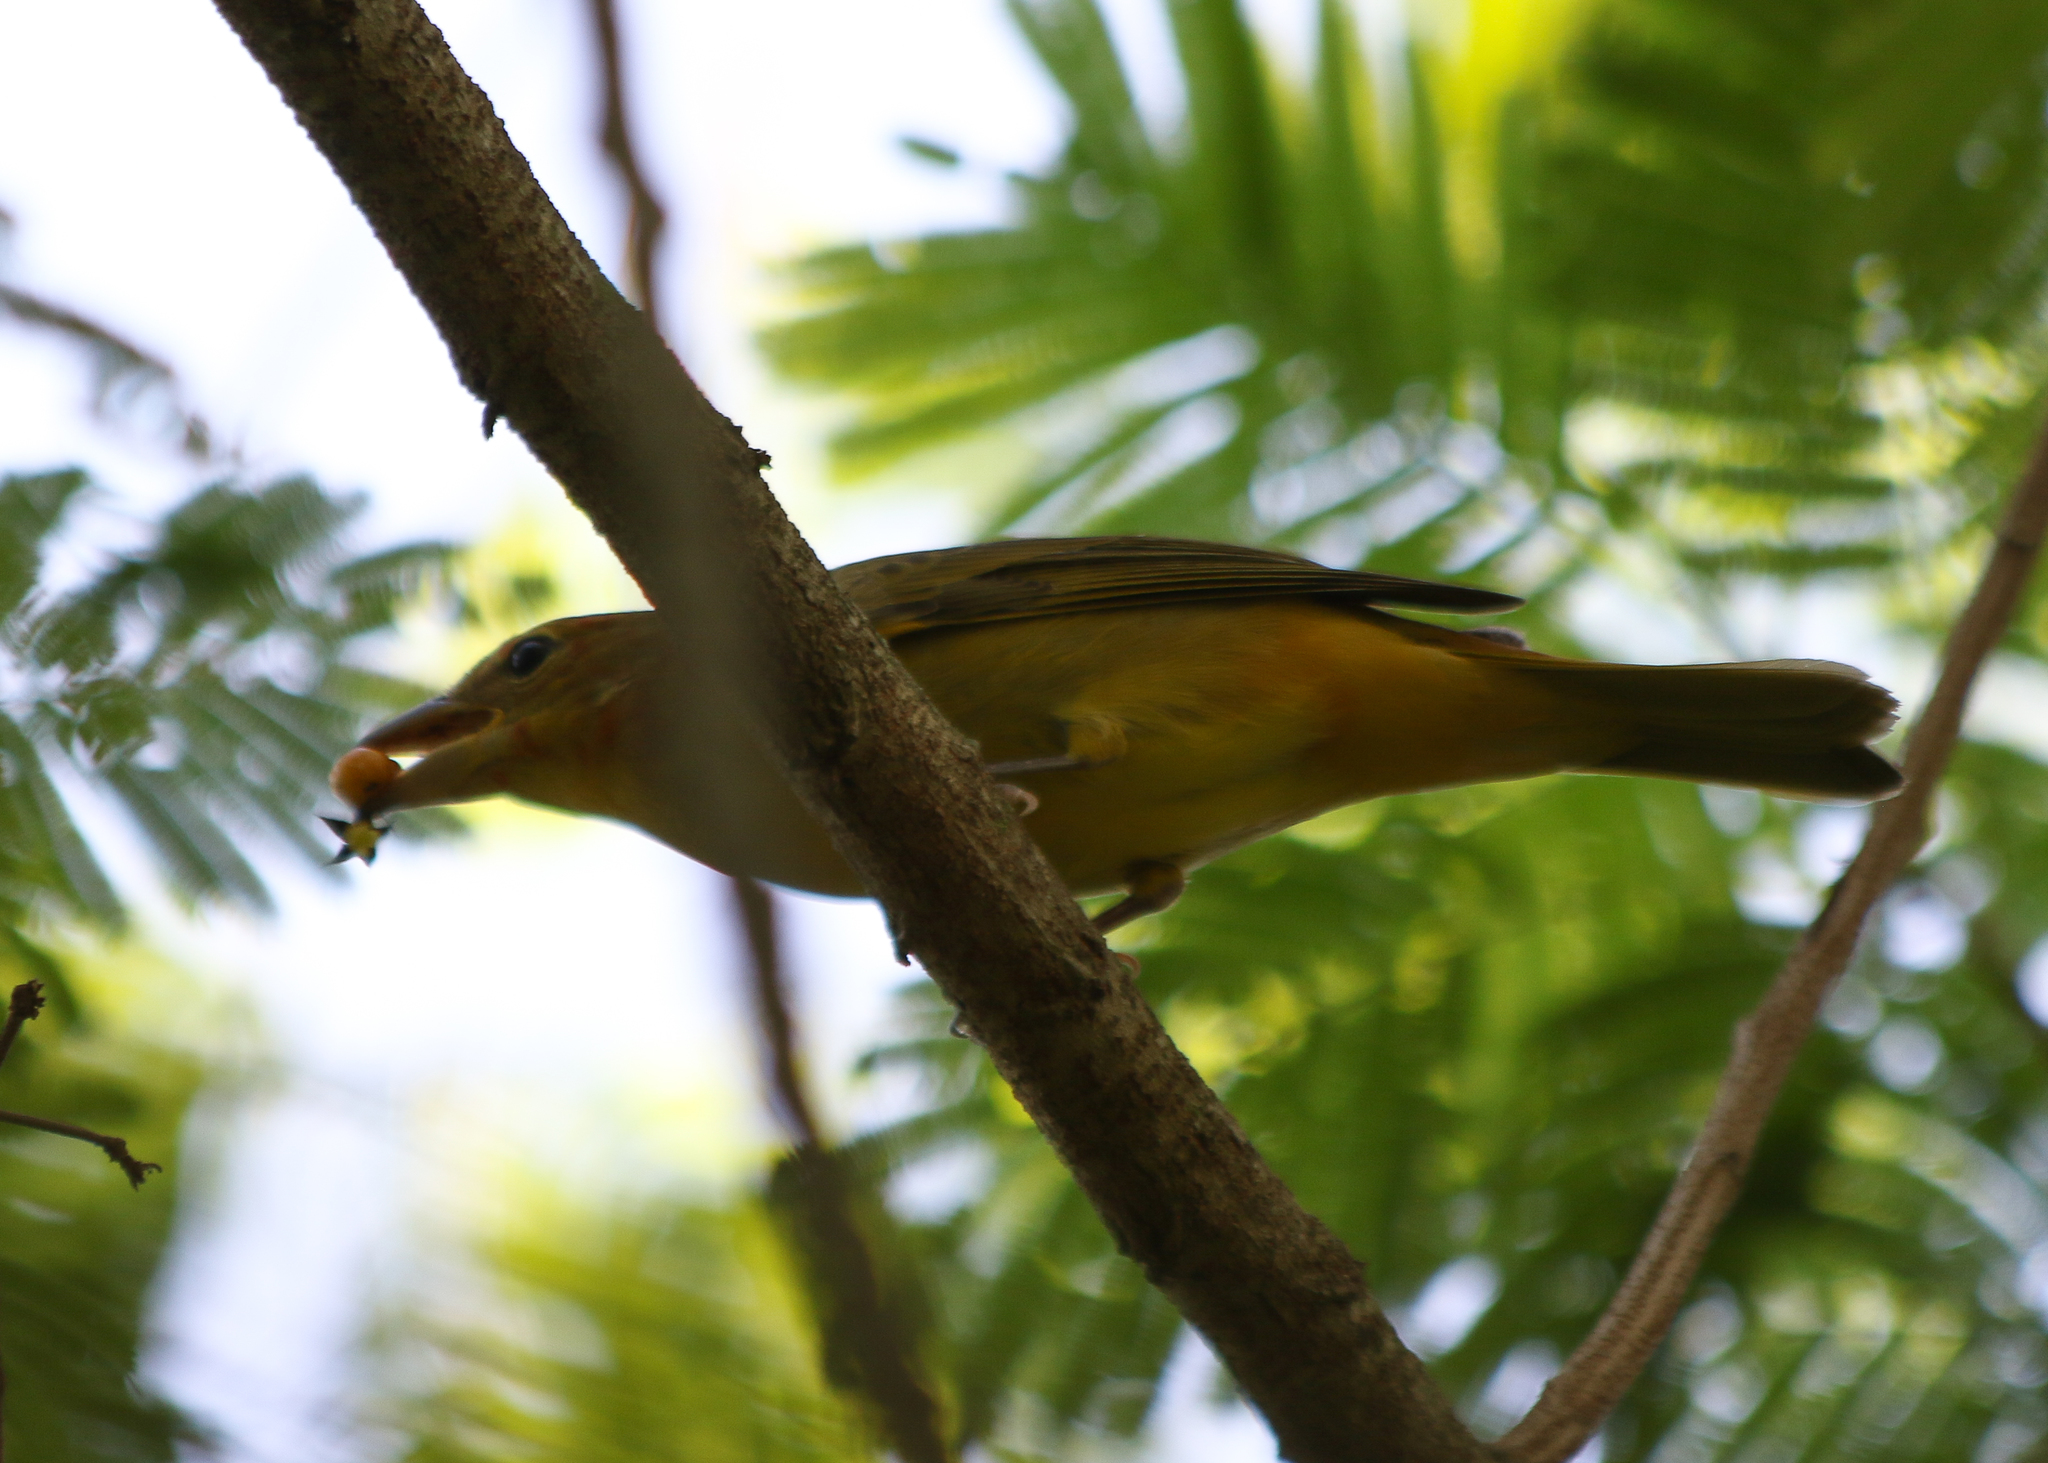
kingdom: Animalia
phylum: Chordata
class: Aves
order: Passeriformes
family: Cardinalidae
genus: Piranga
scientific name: Piranga rubra
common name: Summer tanager
